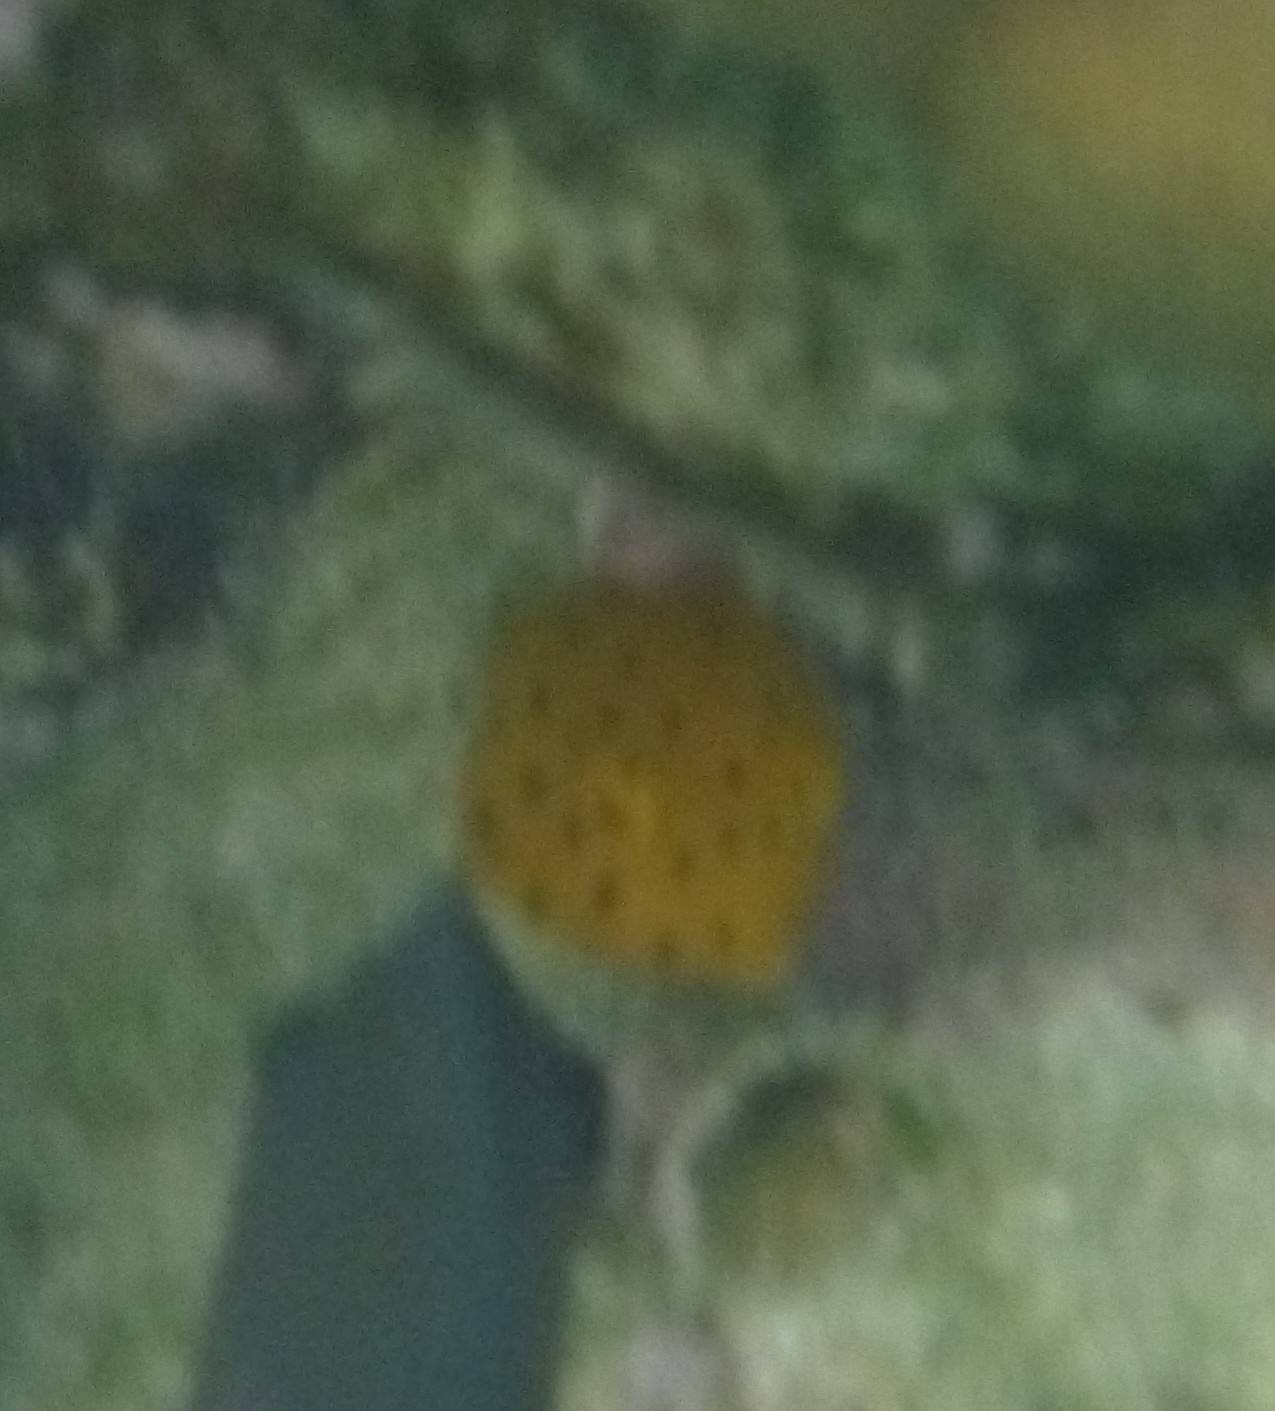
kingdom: Animalia
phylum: Chordata
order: Tetraodontiformes
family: Ostraciidae
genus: Ostracion
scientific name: Ostracion cubicus
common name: Cube trunkfish
